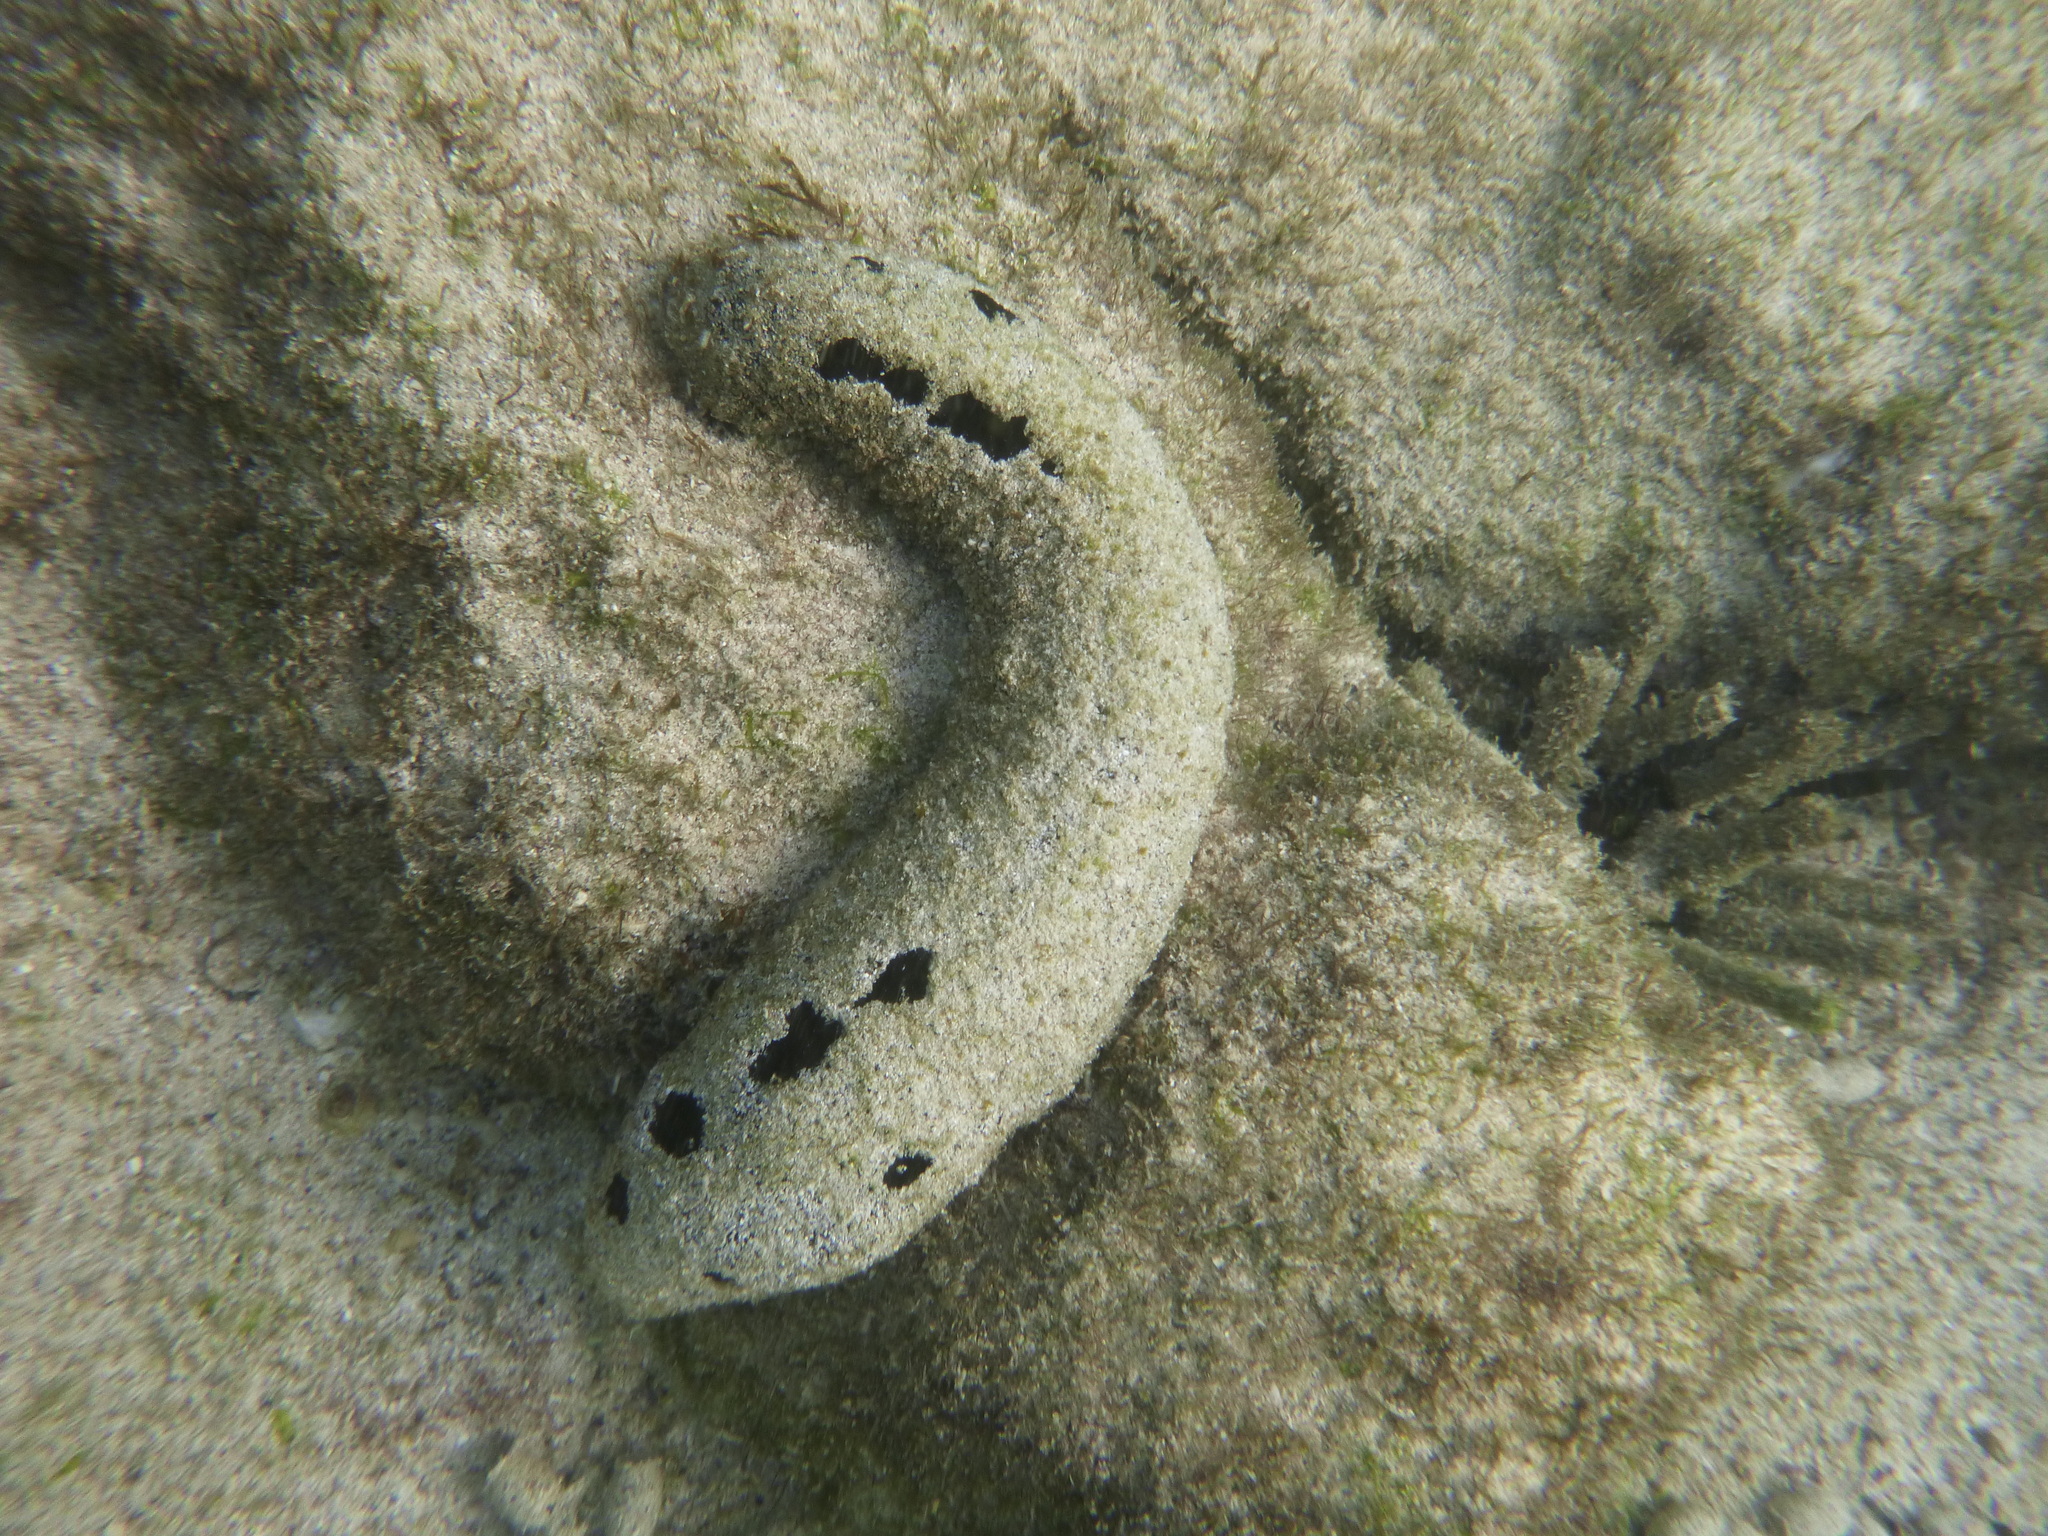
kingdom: Animalia
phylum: Echinodermata
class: Holothuroidea
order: Holothuriida
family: Holothuriidae
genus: Holothuria
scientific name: Holothuria atra
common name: Lollyfish
